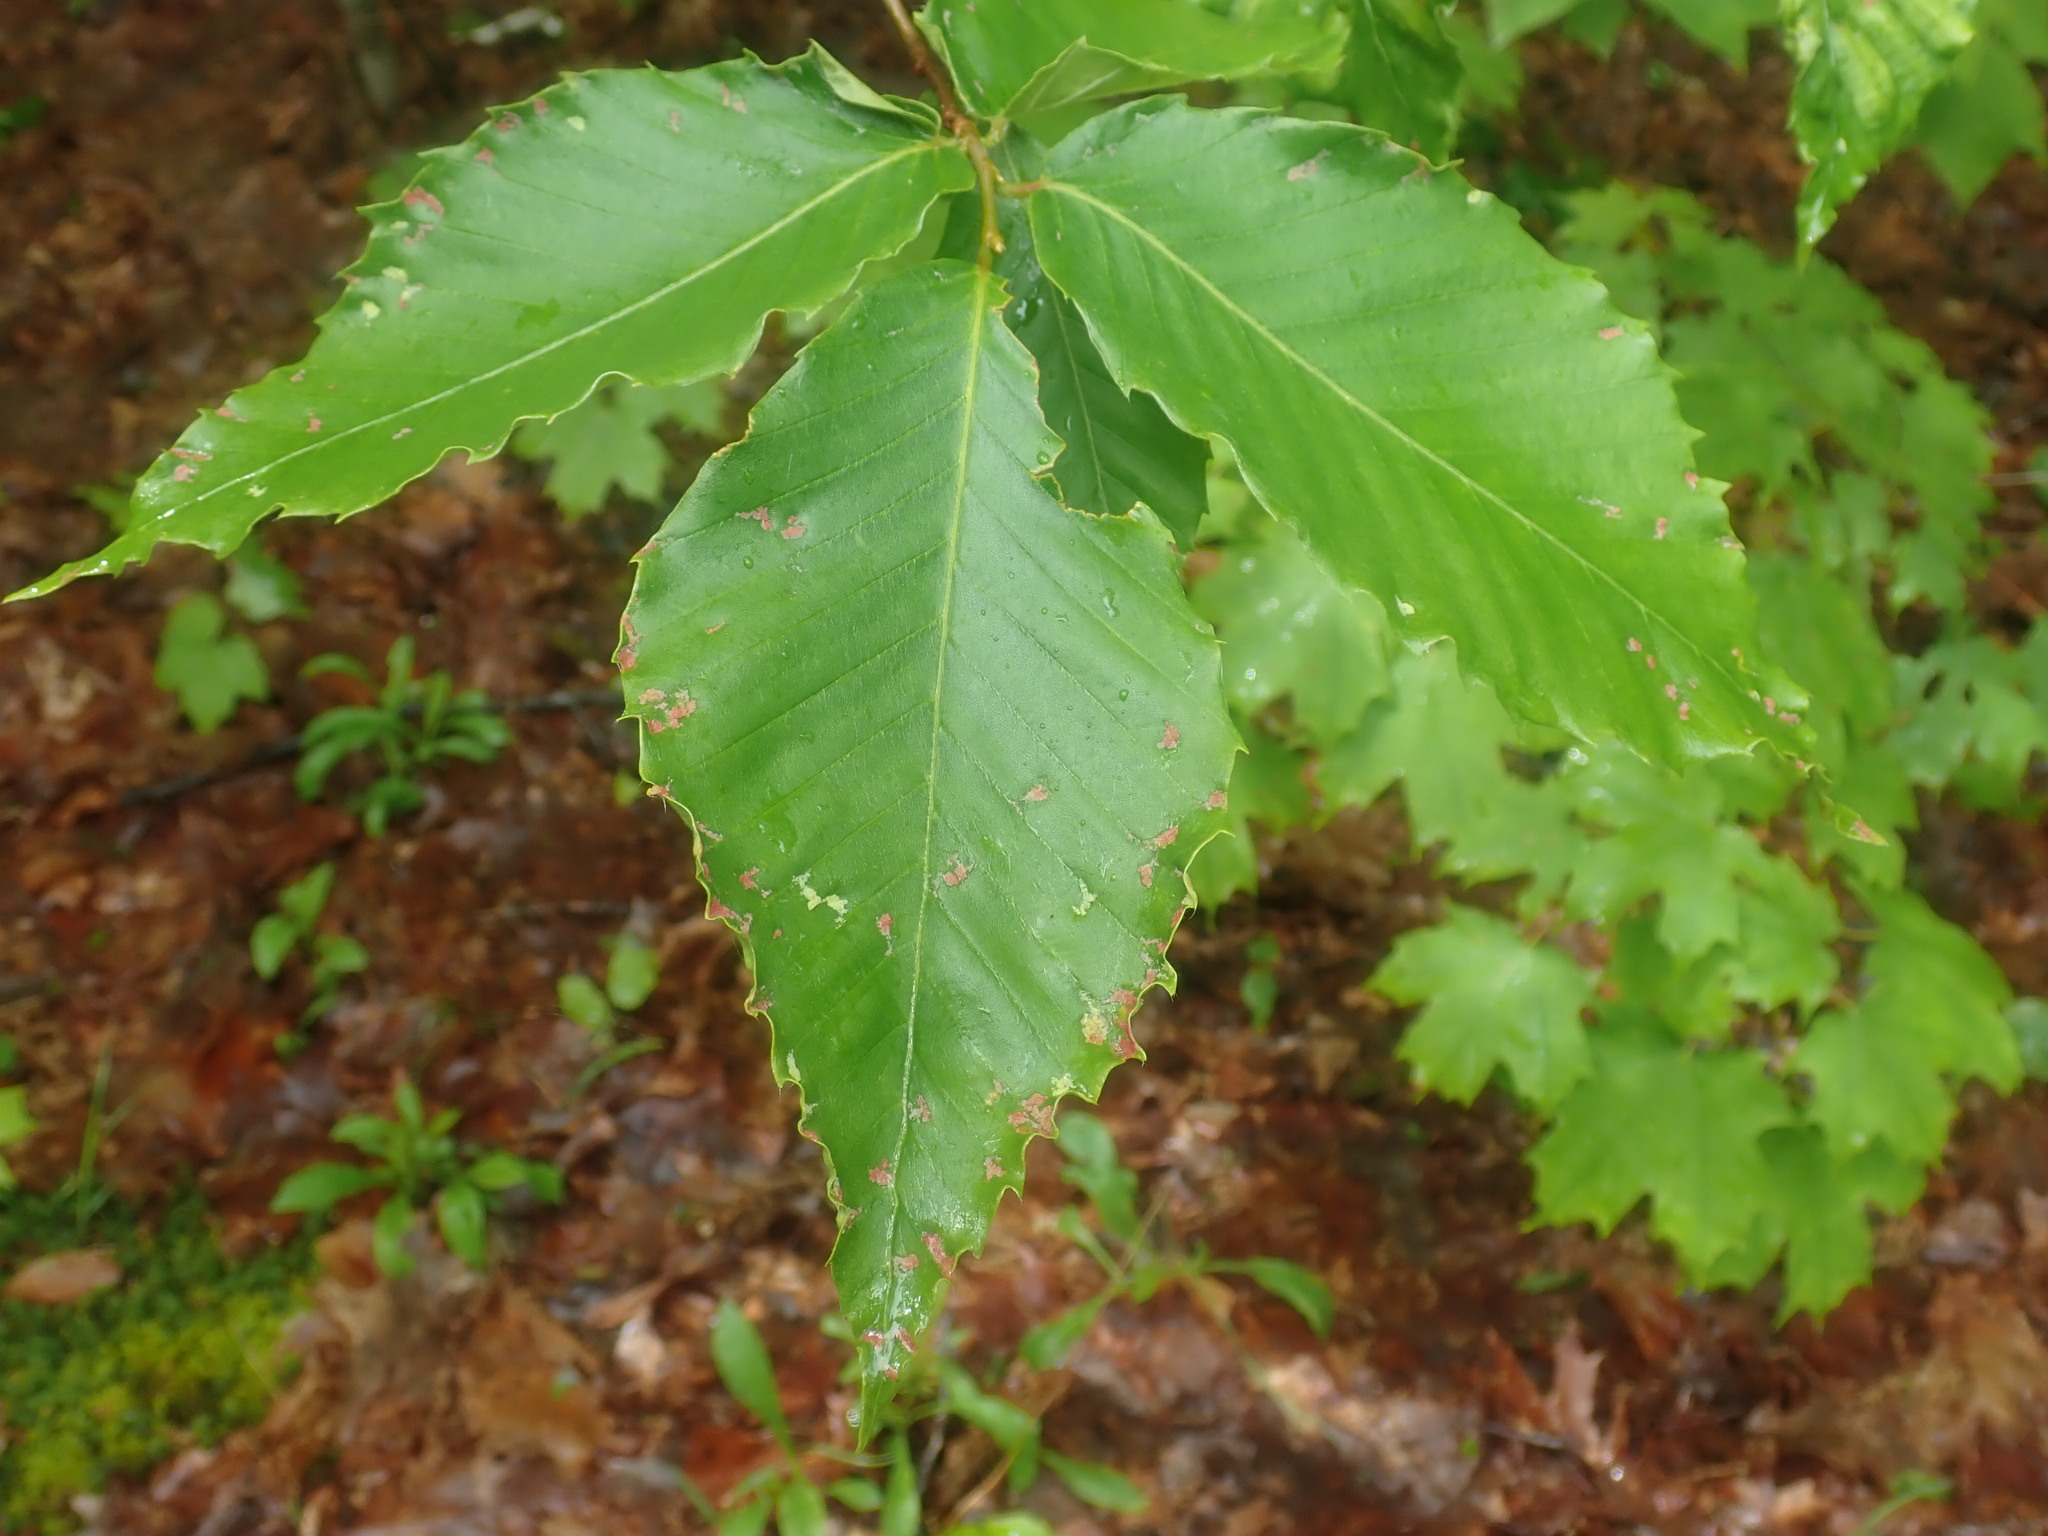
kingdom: Plantae
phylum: Tracheophyta
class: Magnoliopsida
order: Fagales
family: Fagaceae
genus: Fagus
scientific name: Fagus grandifolia
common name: American beech
